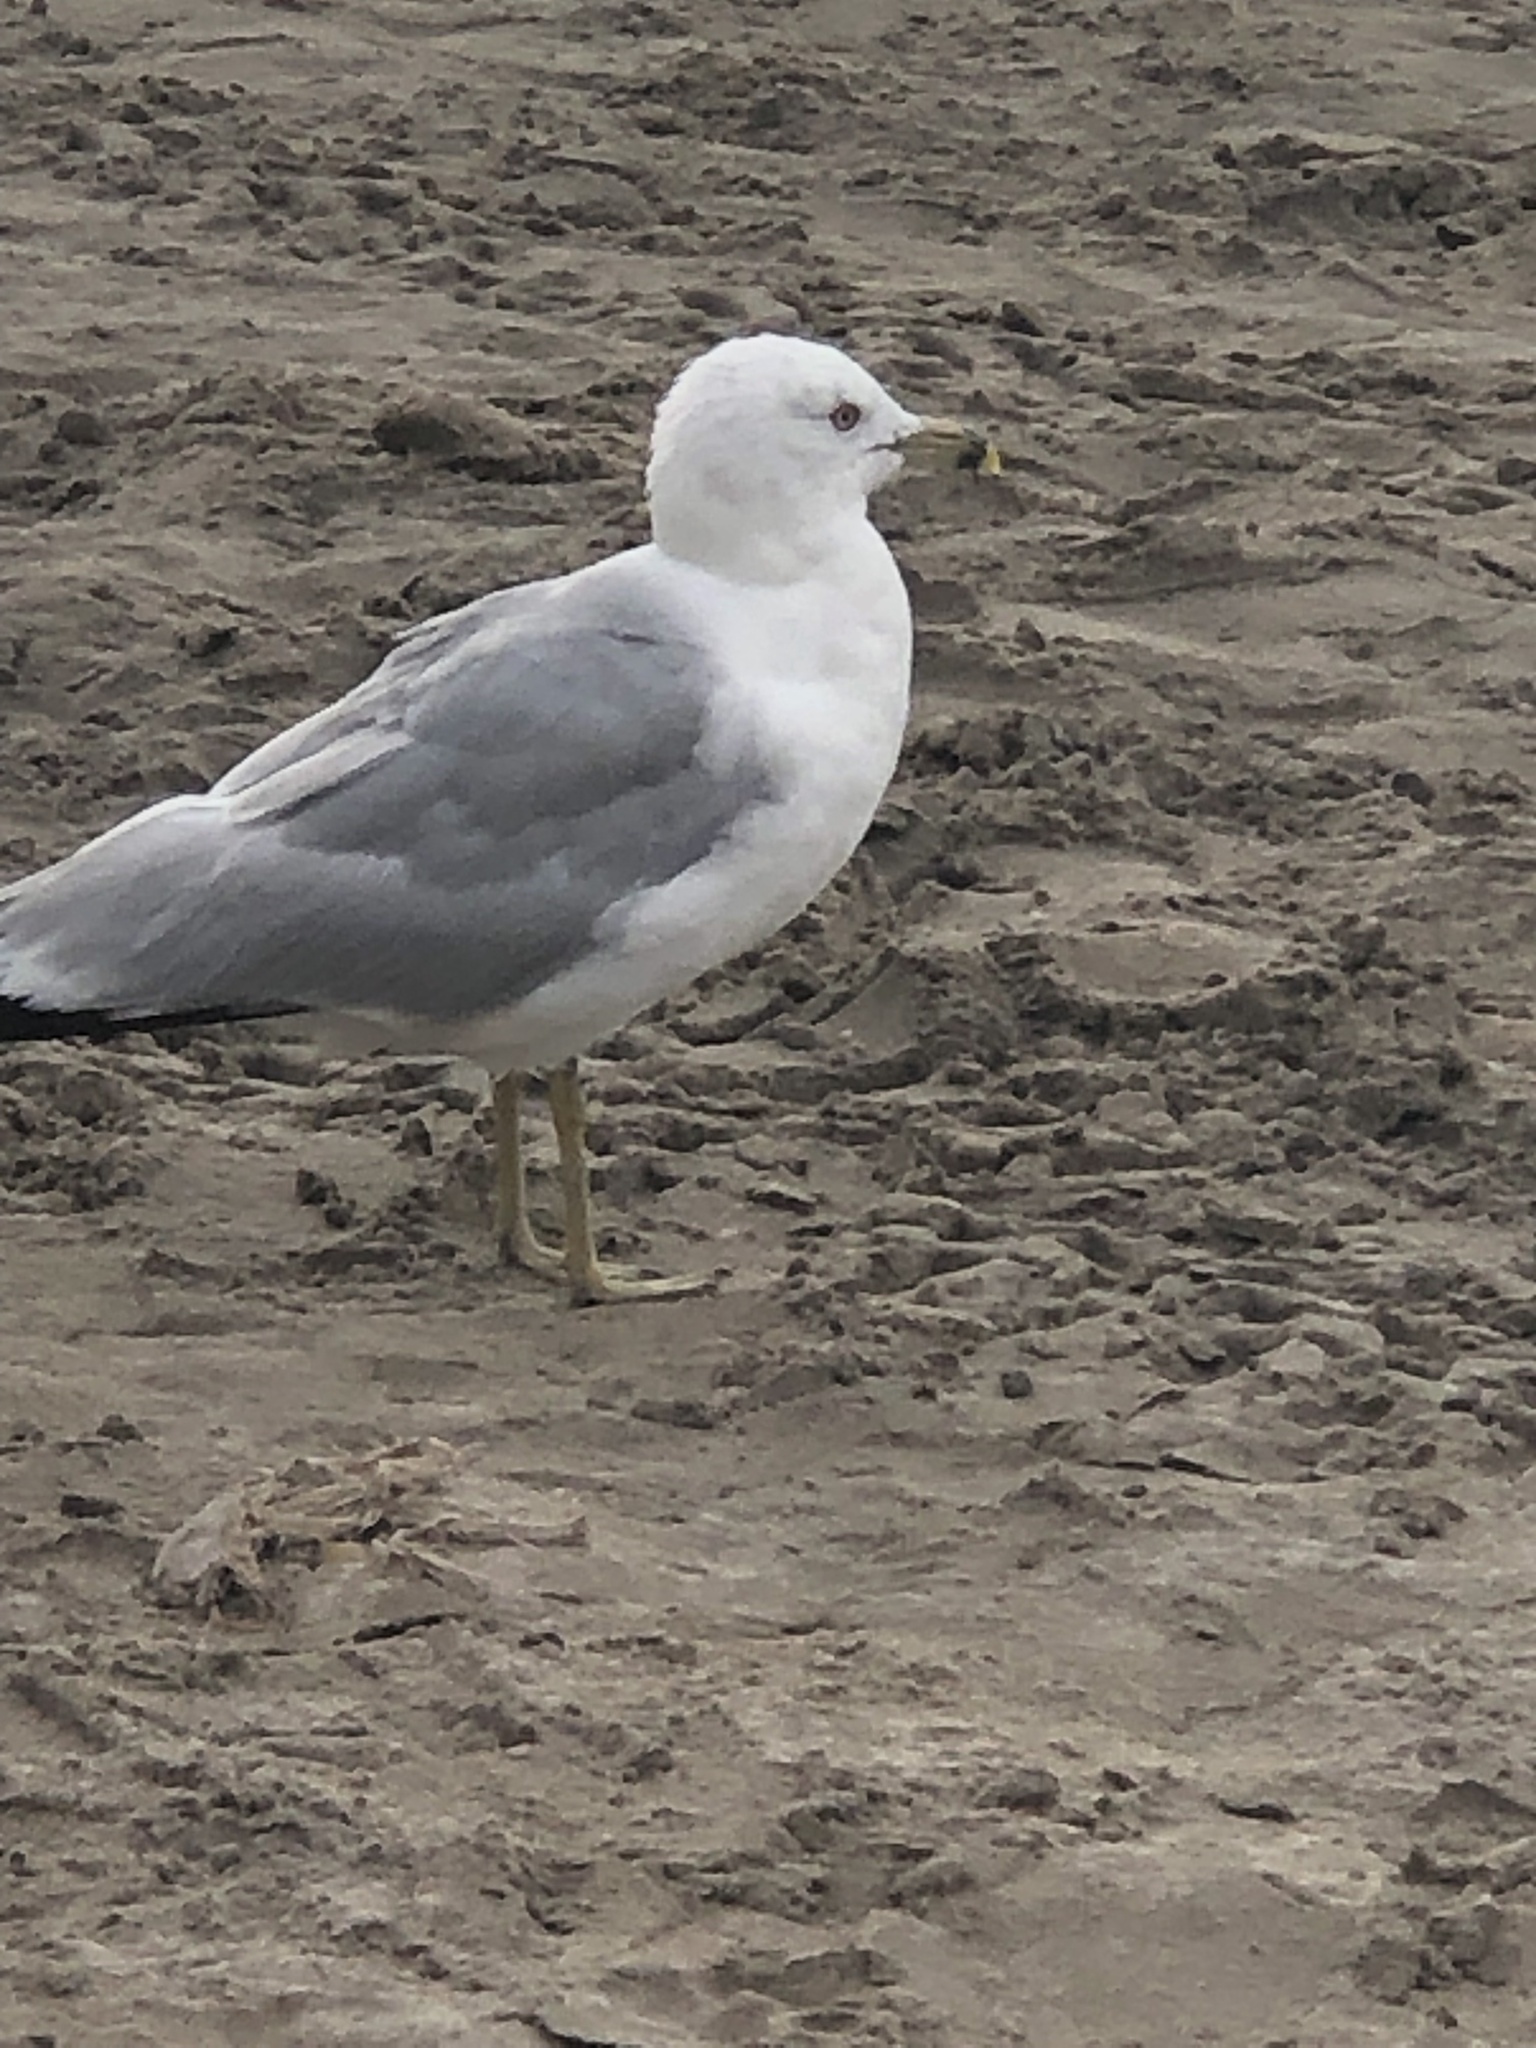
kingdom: Animalia
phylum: Chordata
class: Aves
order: Charadriiformes
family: Laridae
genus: Larus
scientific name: Larus delawarensis
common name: Ring-billed gull
